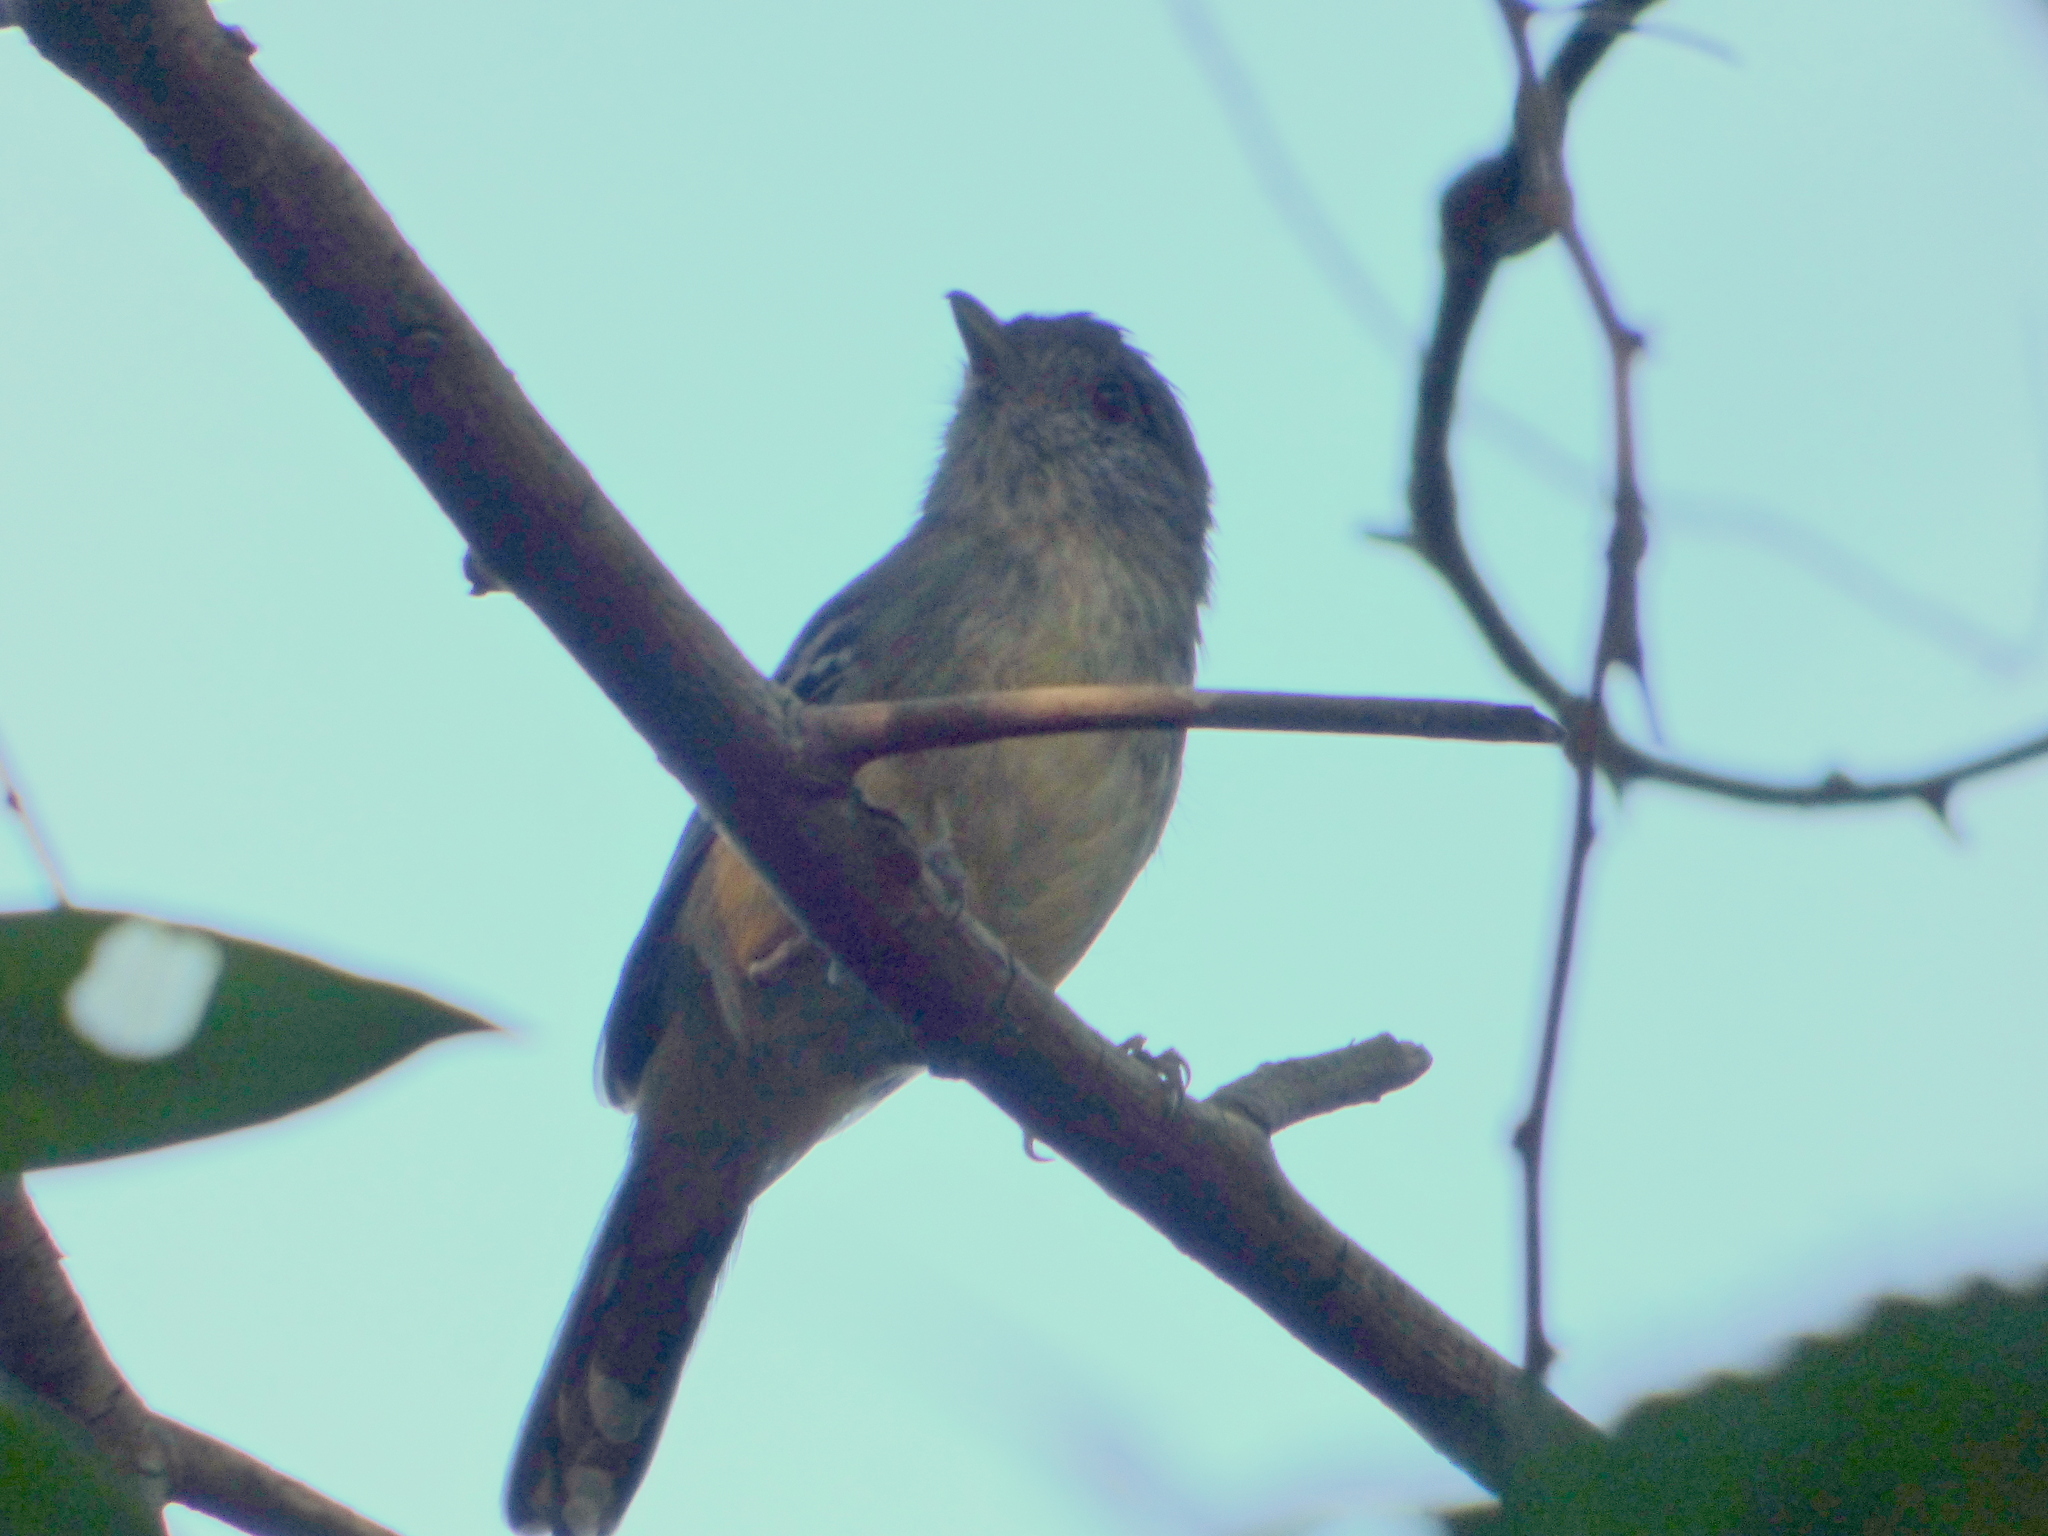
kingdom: Animalia
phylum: Chordata
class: Aves
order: Passeriformes
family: Thamnophilidae
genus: Thamnophilus
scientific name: Thamnophilus caerulescens
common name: Variable antshrike
